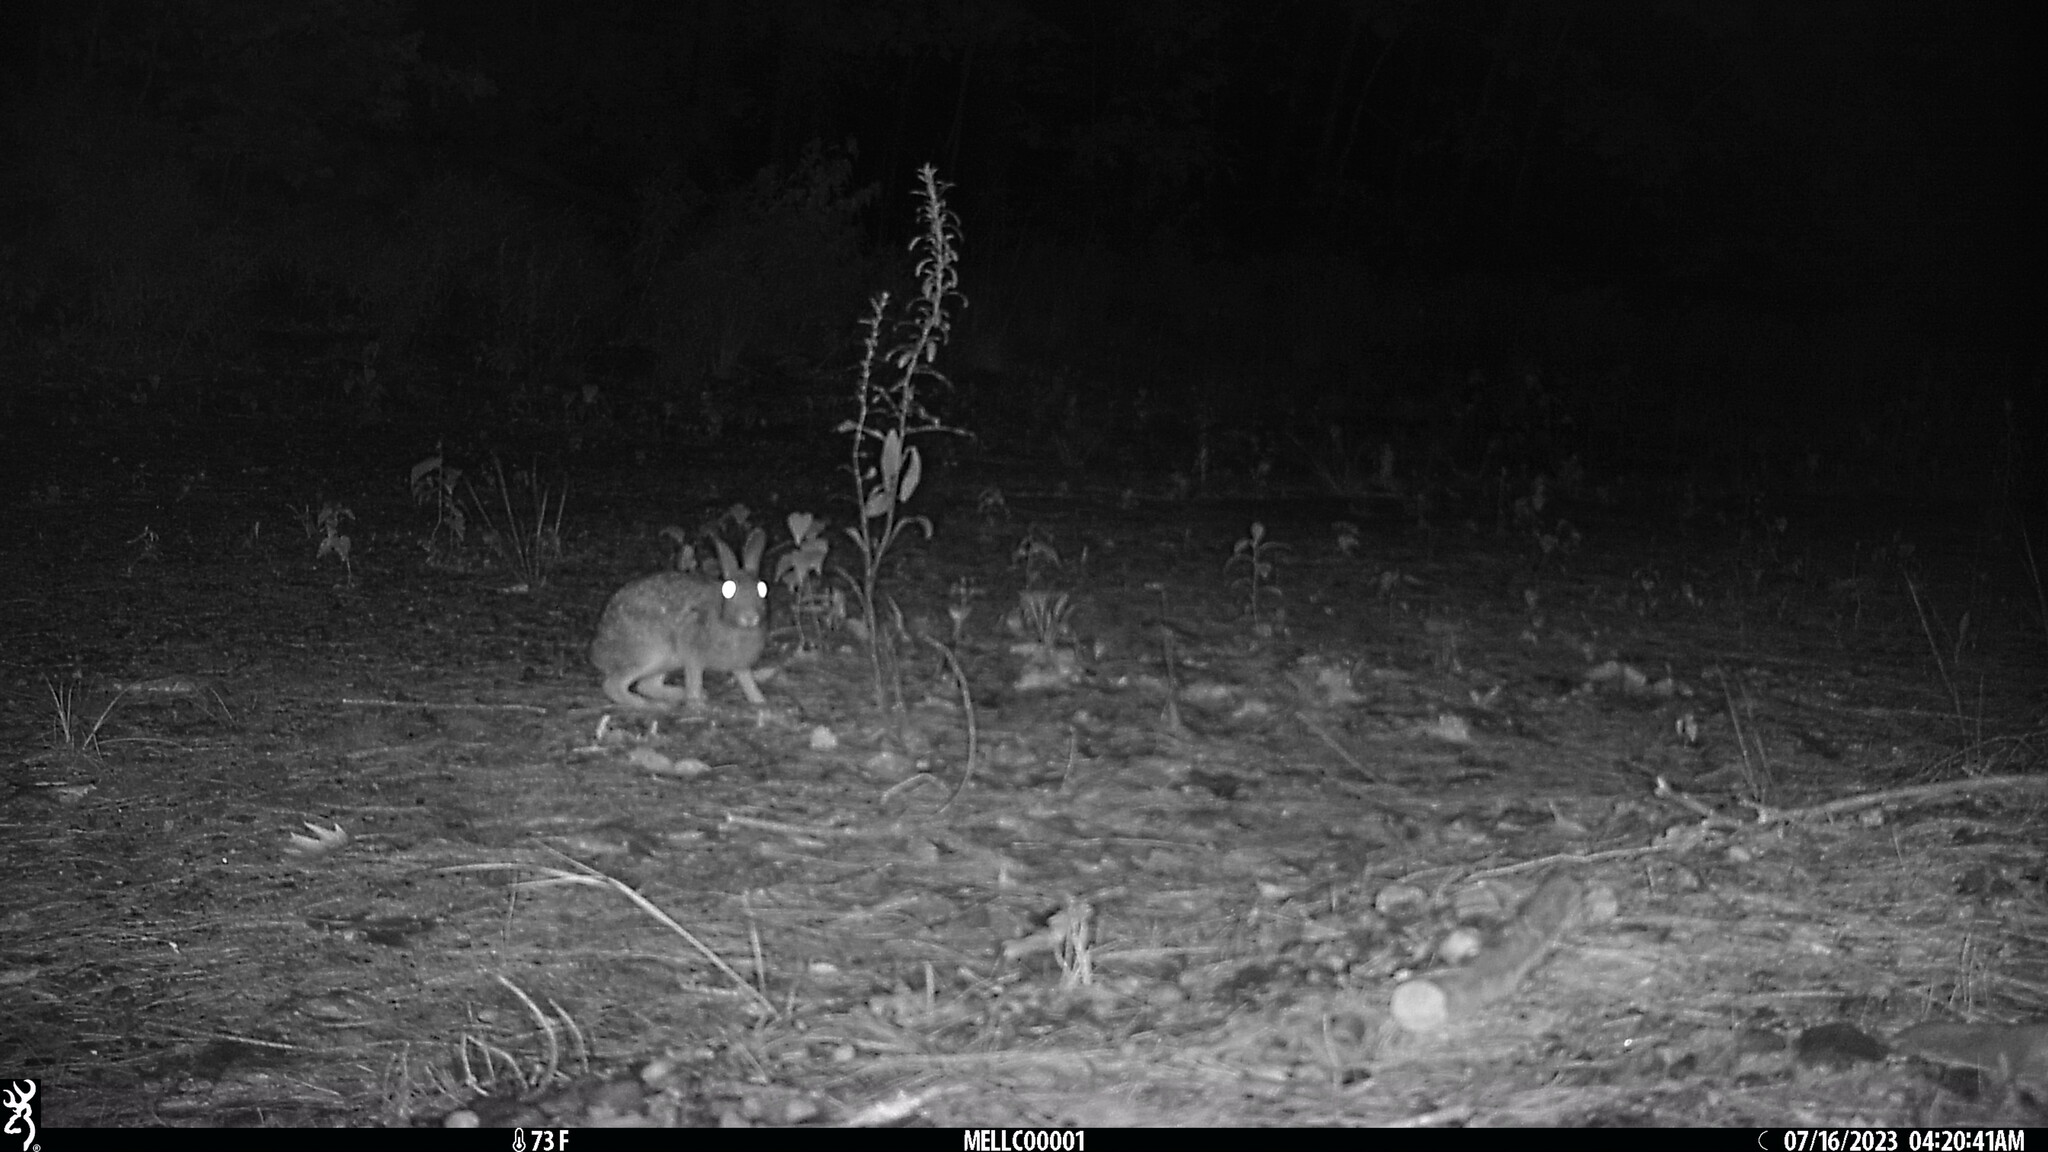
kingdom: Animalia
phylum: Chordata
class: Mammalia
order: Lagomorpha
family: Leporidae
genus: Sylvilagus
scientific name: Sylvilagus floridanus
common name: Eastern cottontail
